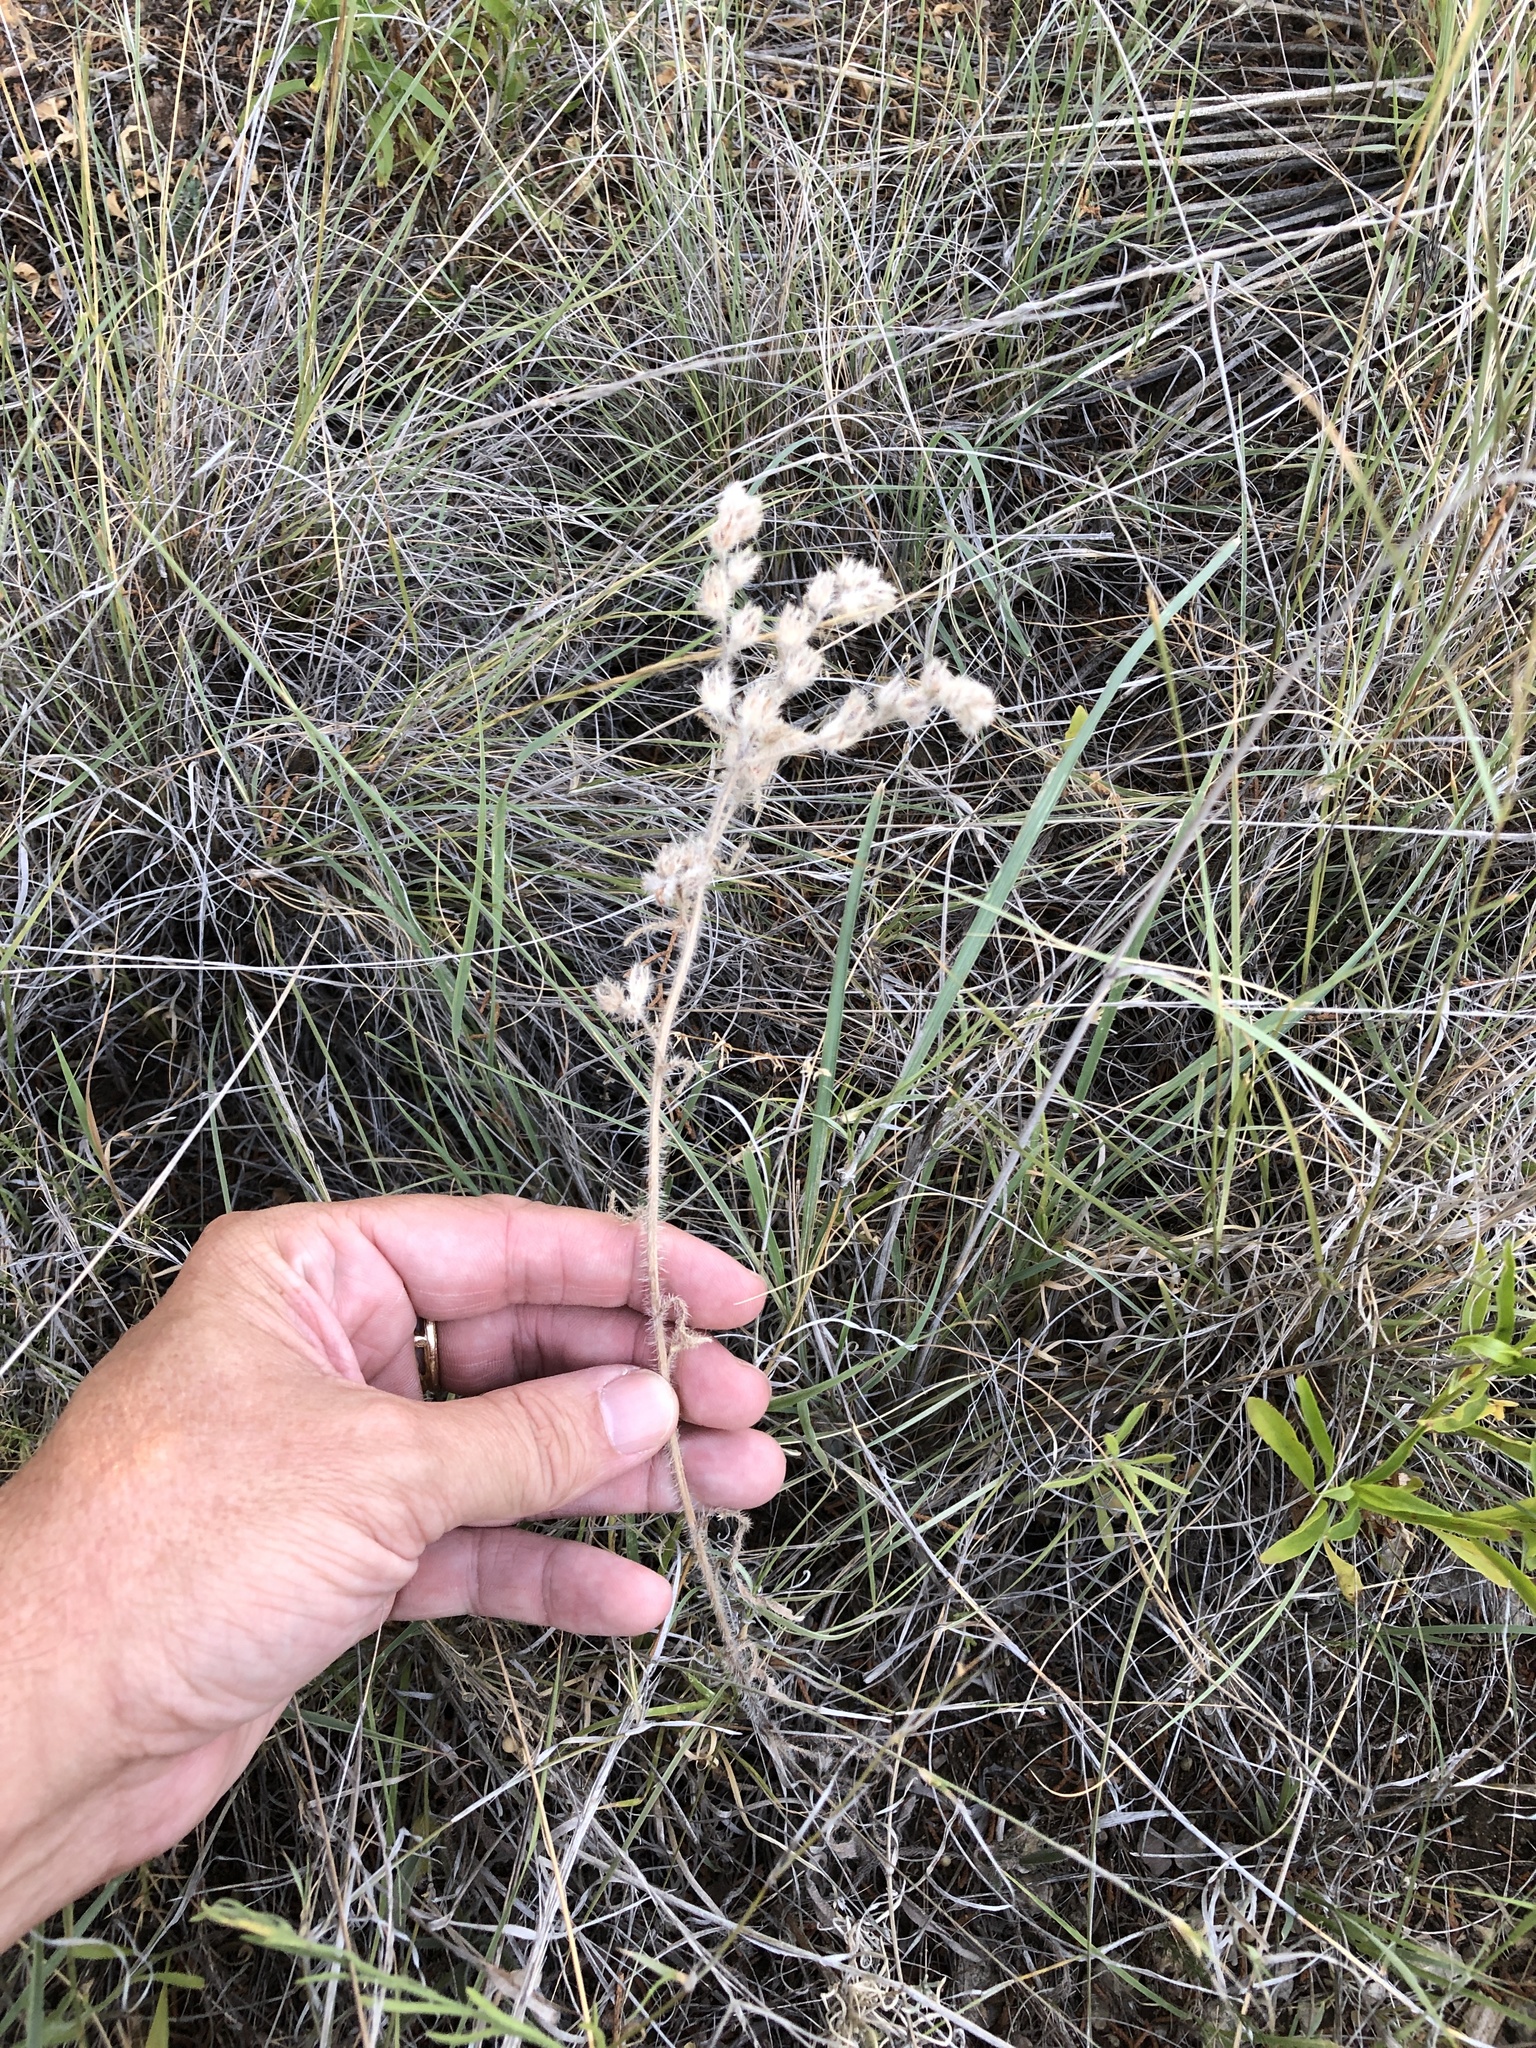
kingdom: Plantae
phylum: Tracheophyta
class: Magnoliopsida
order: Boraginales
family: Boraginaceae
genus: Oreocarya
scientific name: Oreocarya palmeri
